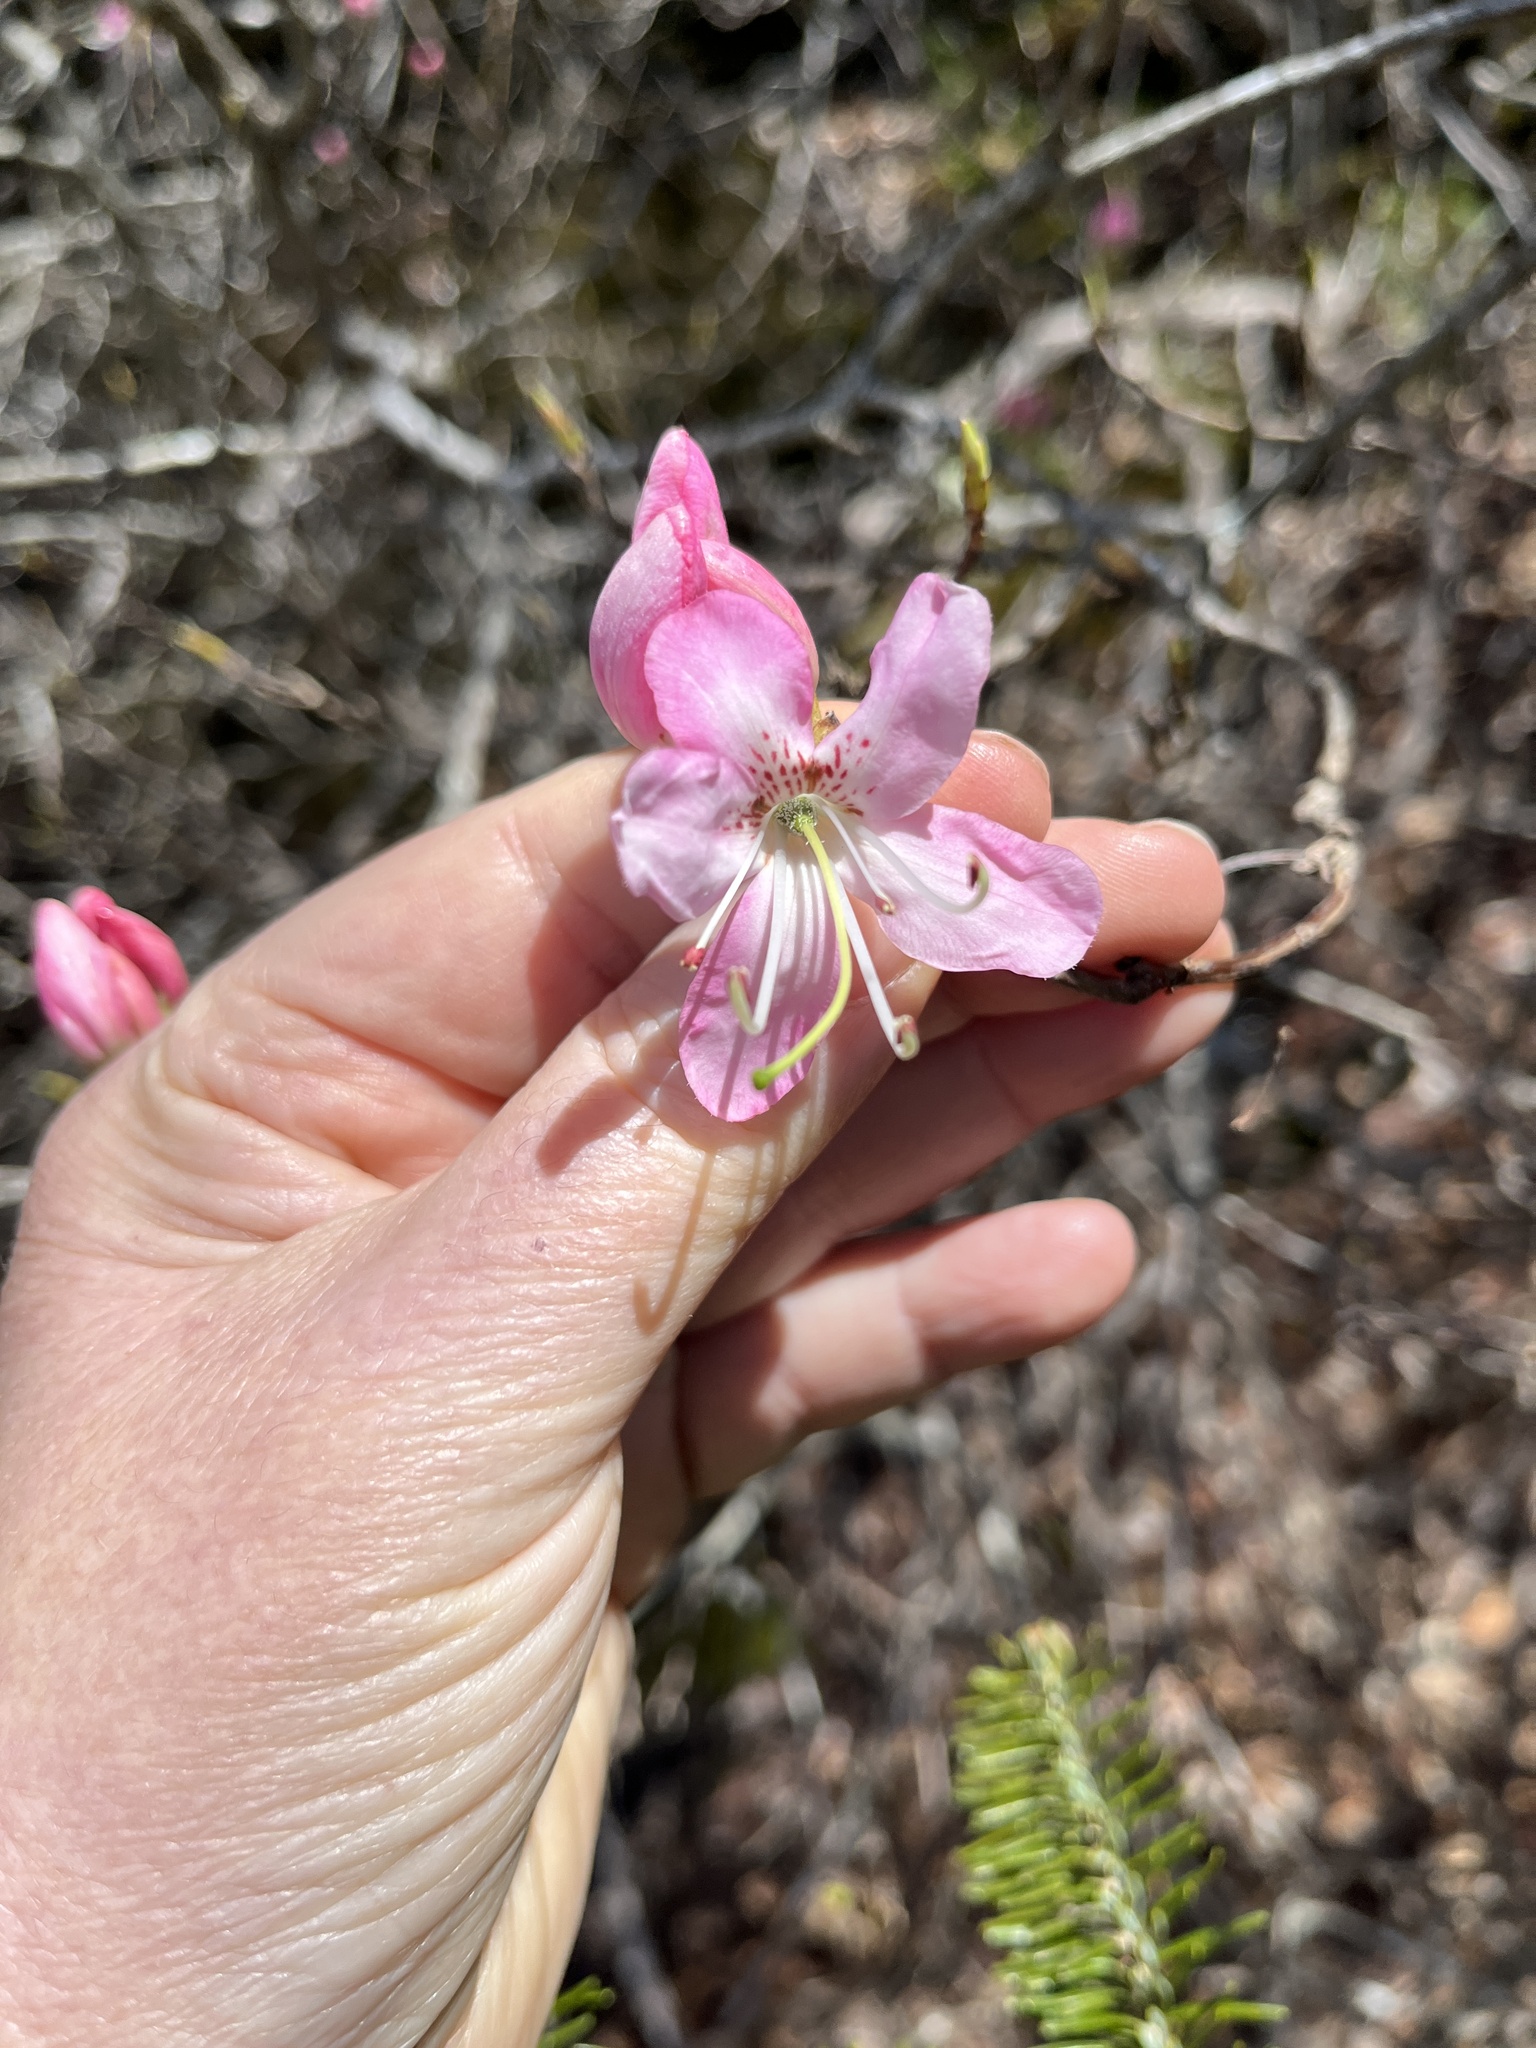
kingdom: Plantae
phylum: Tracheophyta
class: Magnoliopsida
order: Ericales
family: Ericaceae
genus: Rhododendron
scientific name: Rhododendron vaseyi
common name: Pink-shell azalea
